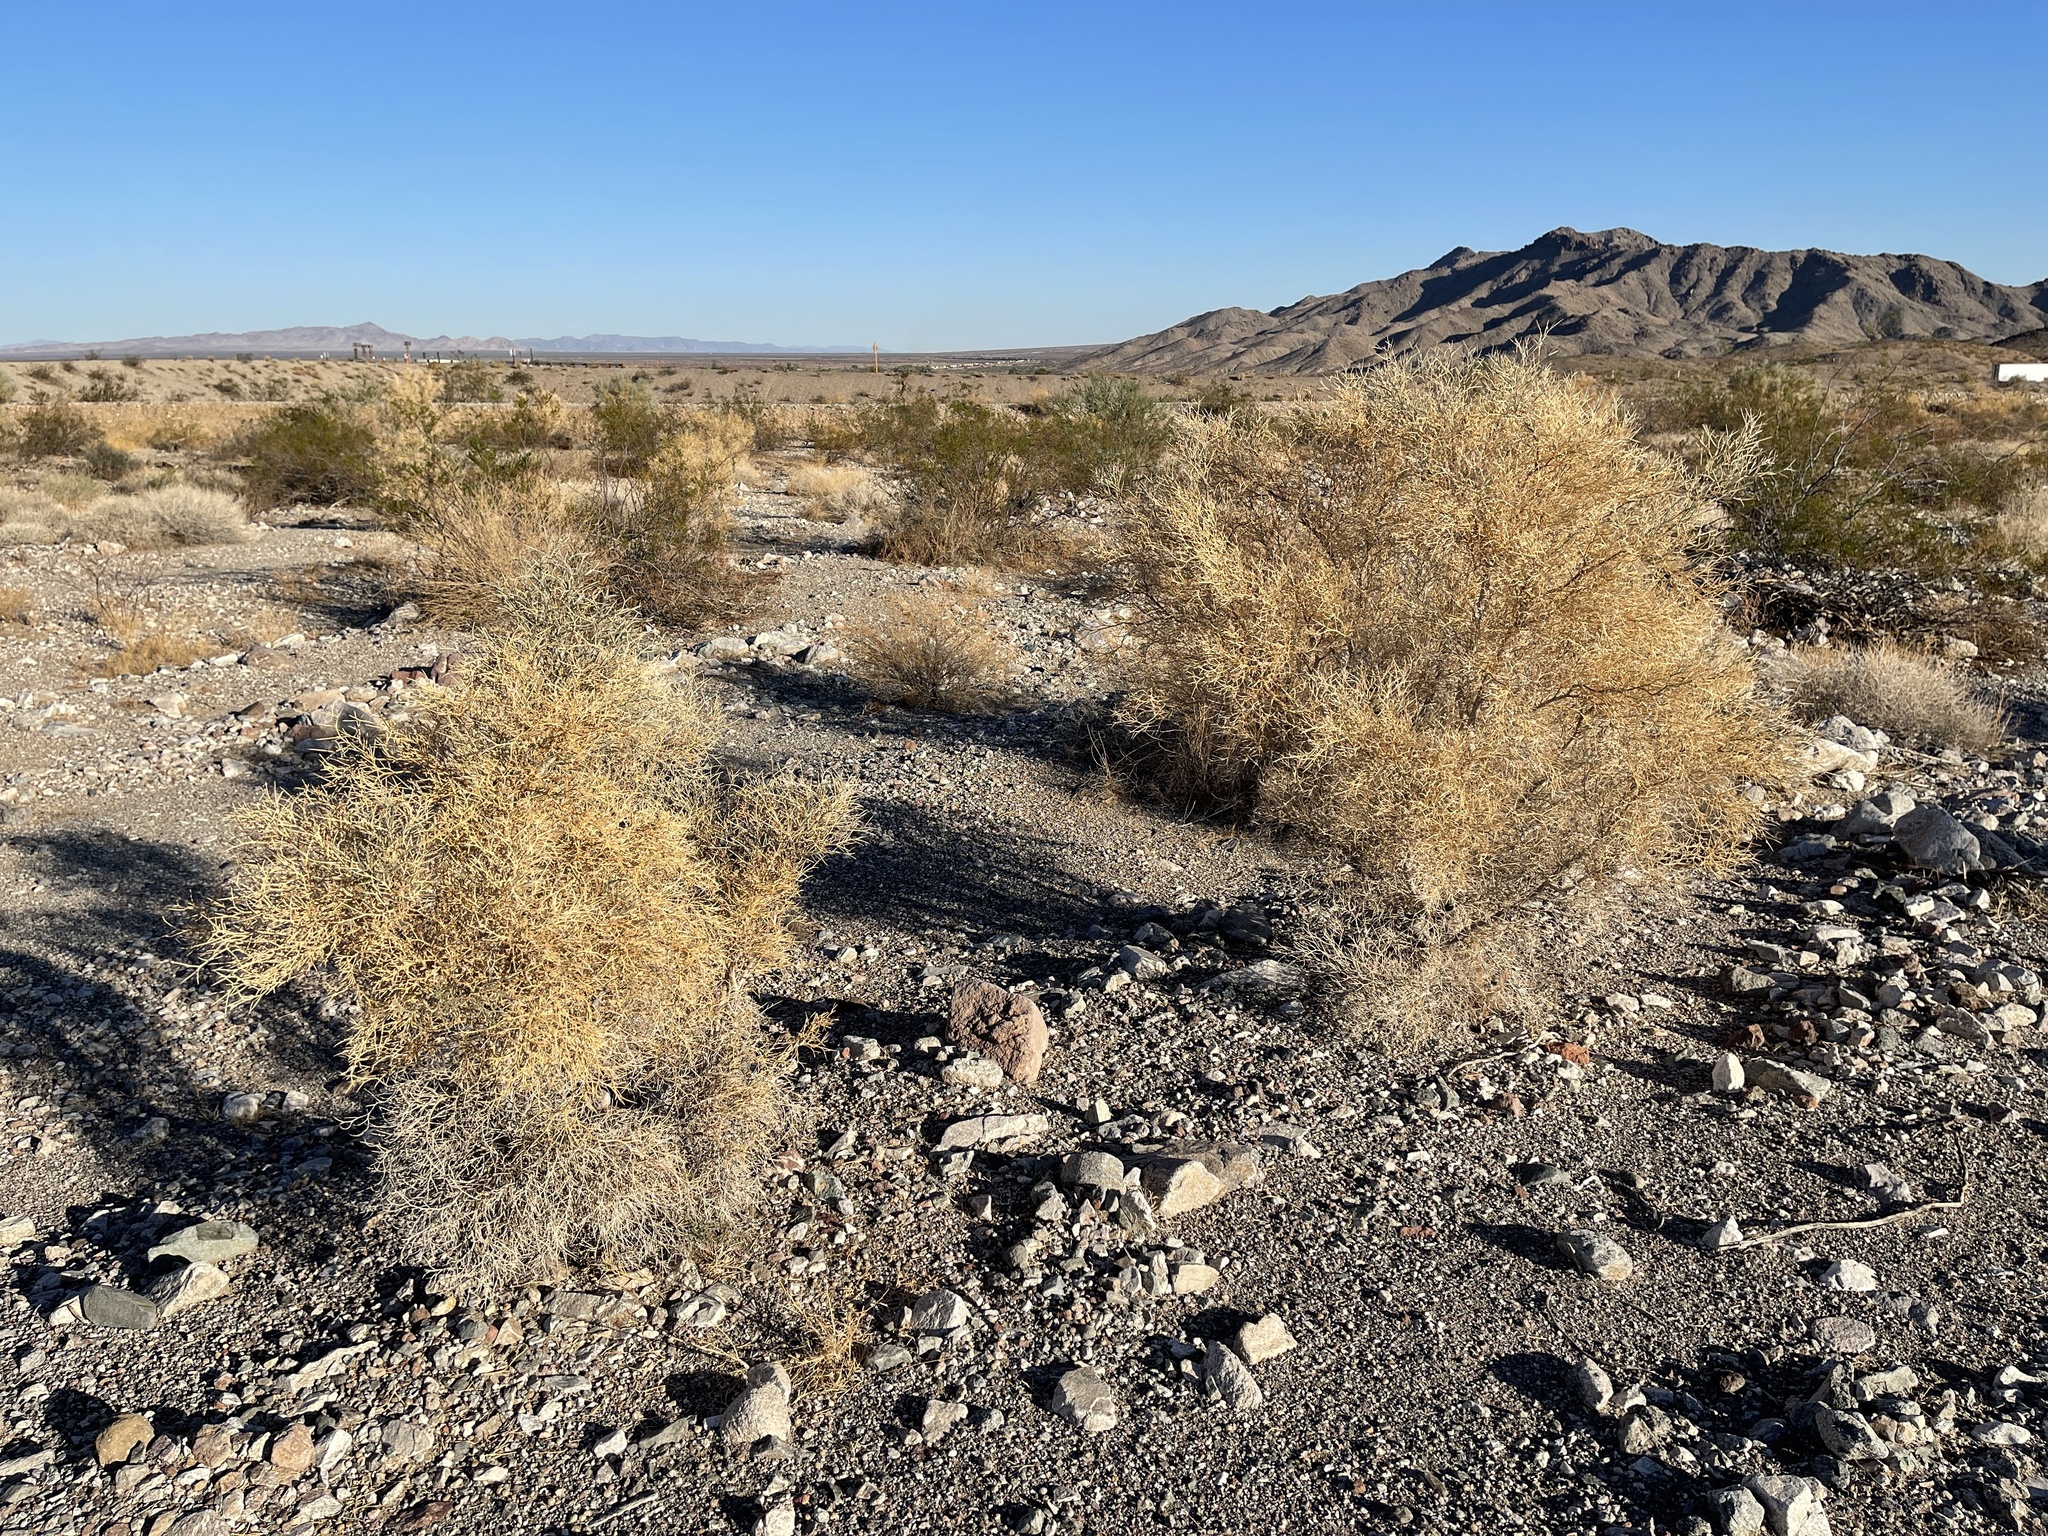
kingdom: Plantae
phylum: Tracheophyta
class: Magnoliopsida
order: Fabales
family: Fabaceae
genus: Psorothamnus
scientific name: Psorothamnus spinosus
